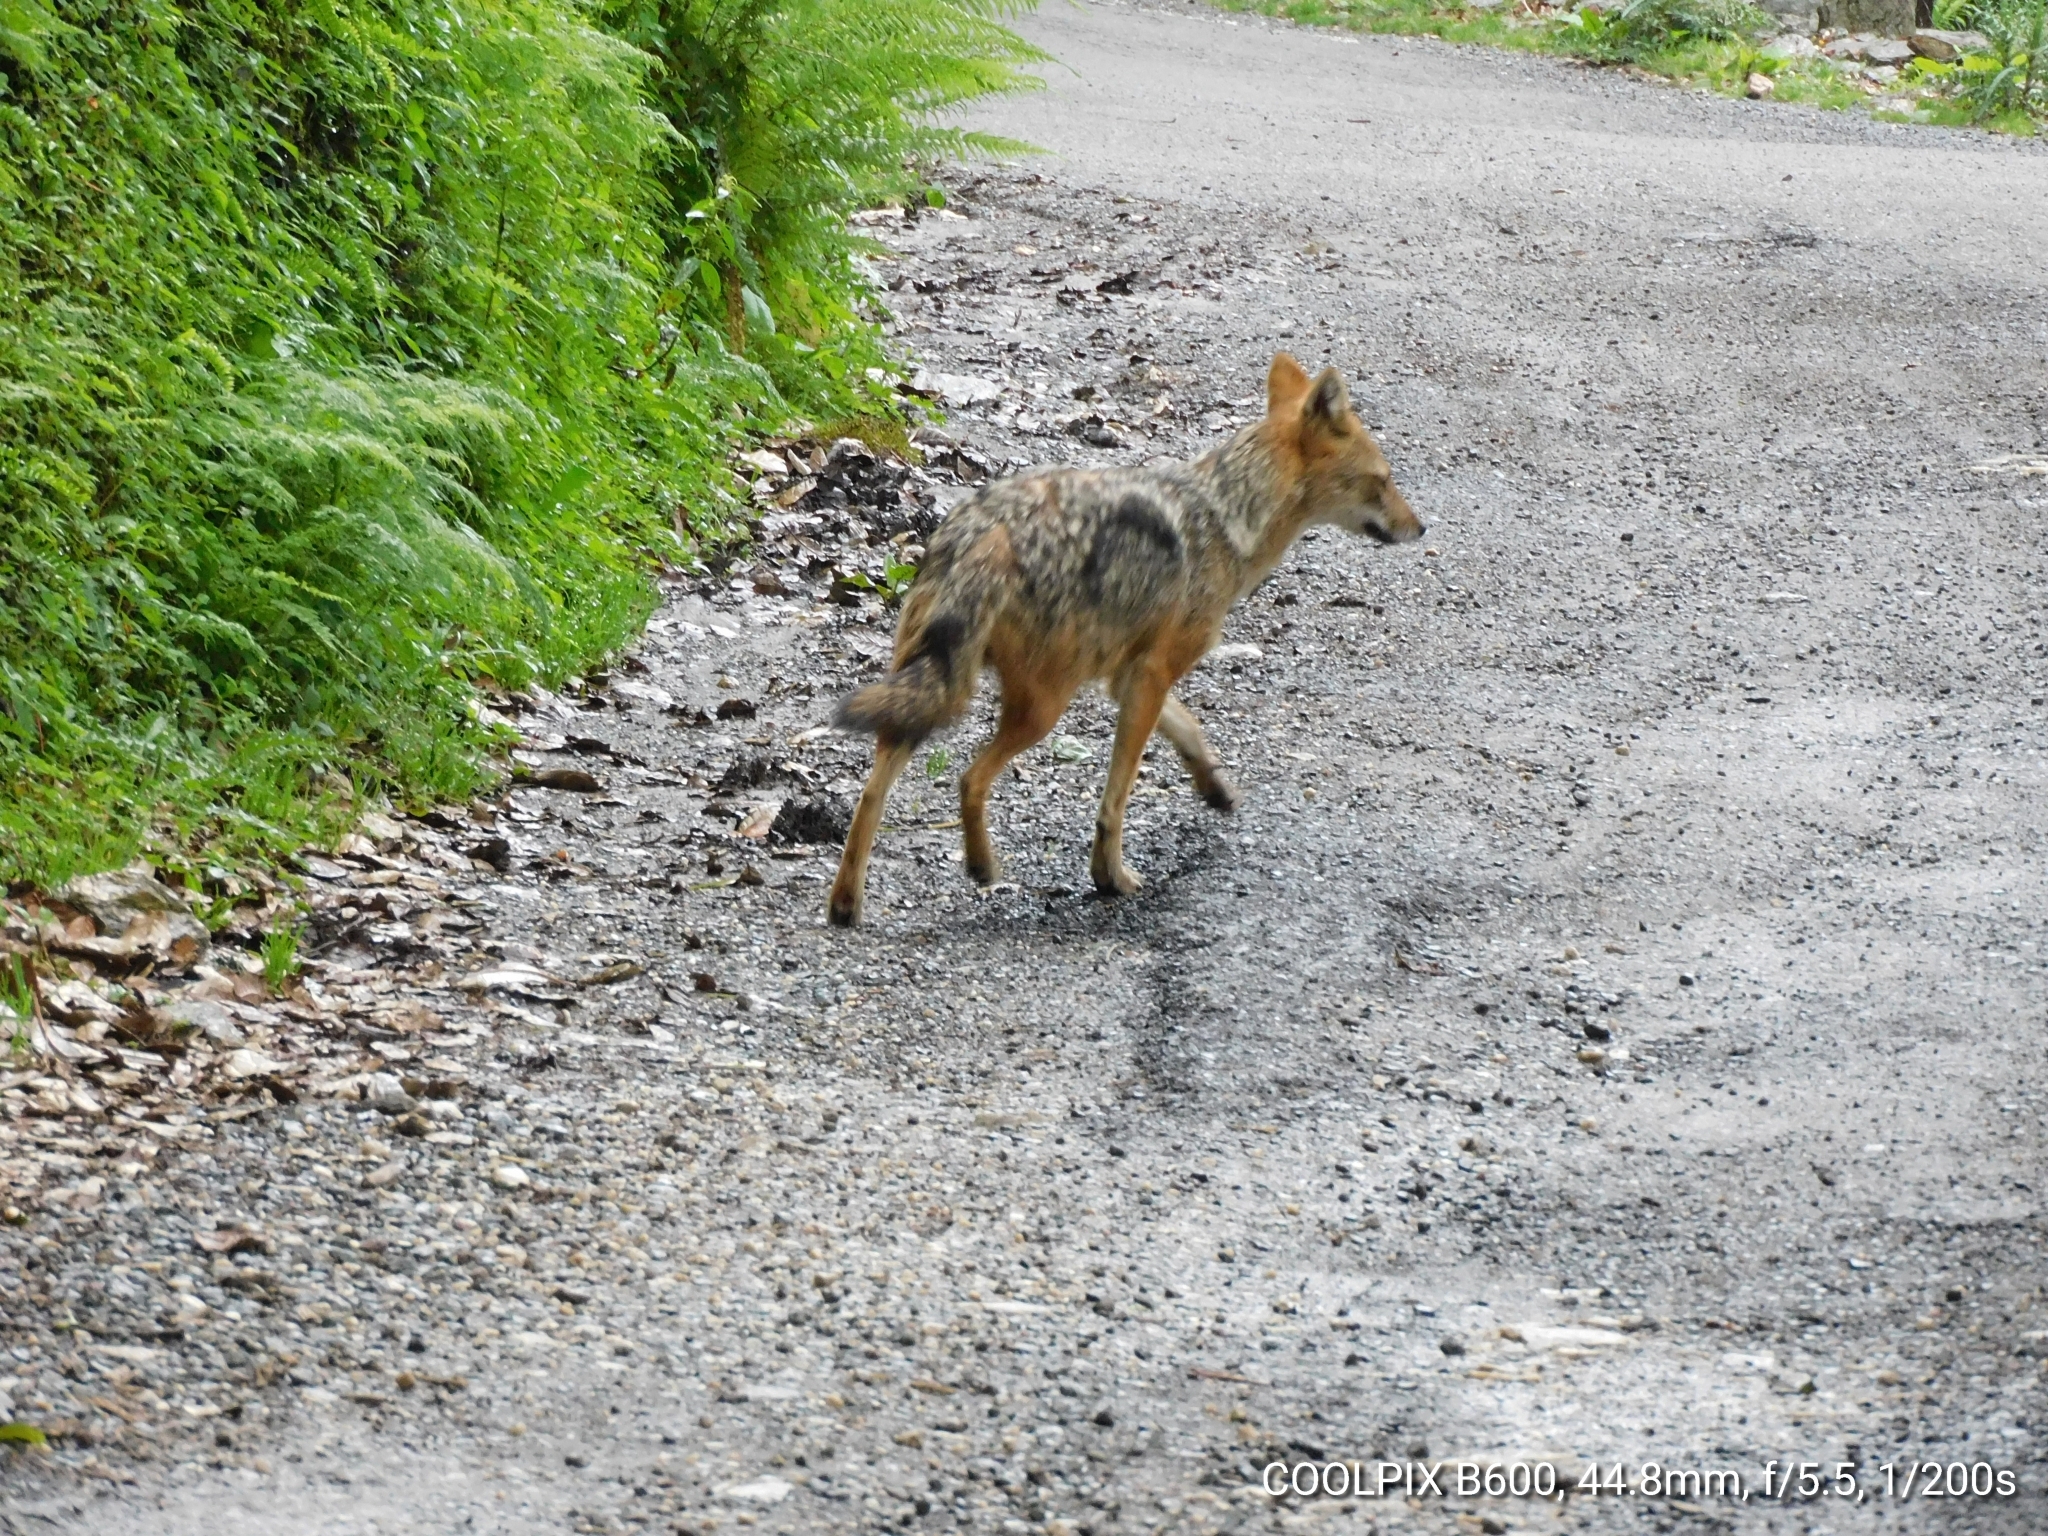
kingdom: Animalia
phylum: Chordata
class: Mammalia
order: Carnivora
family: Canidae
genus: Canis
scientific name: Canis aureus
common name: Golden jackal
